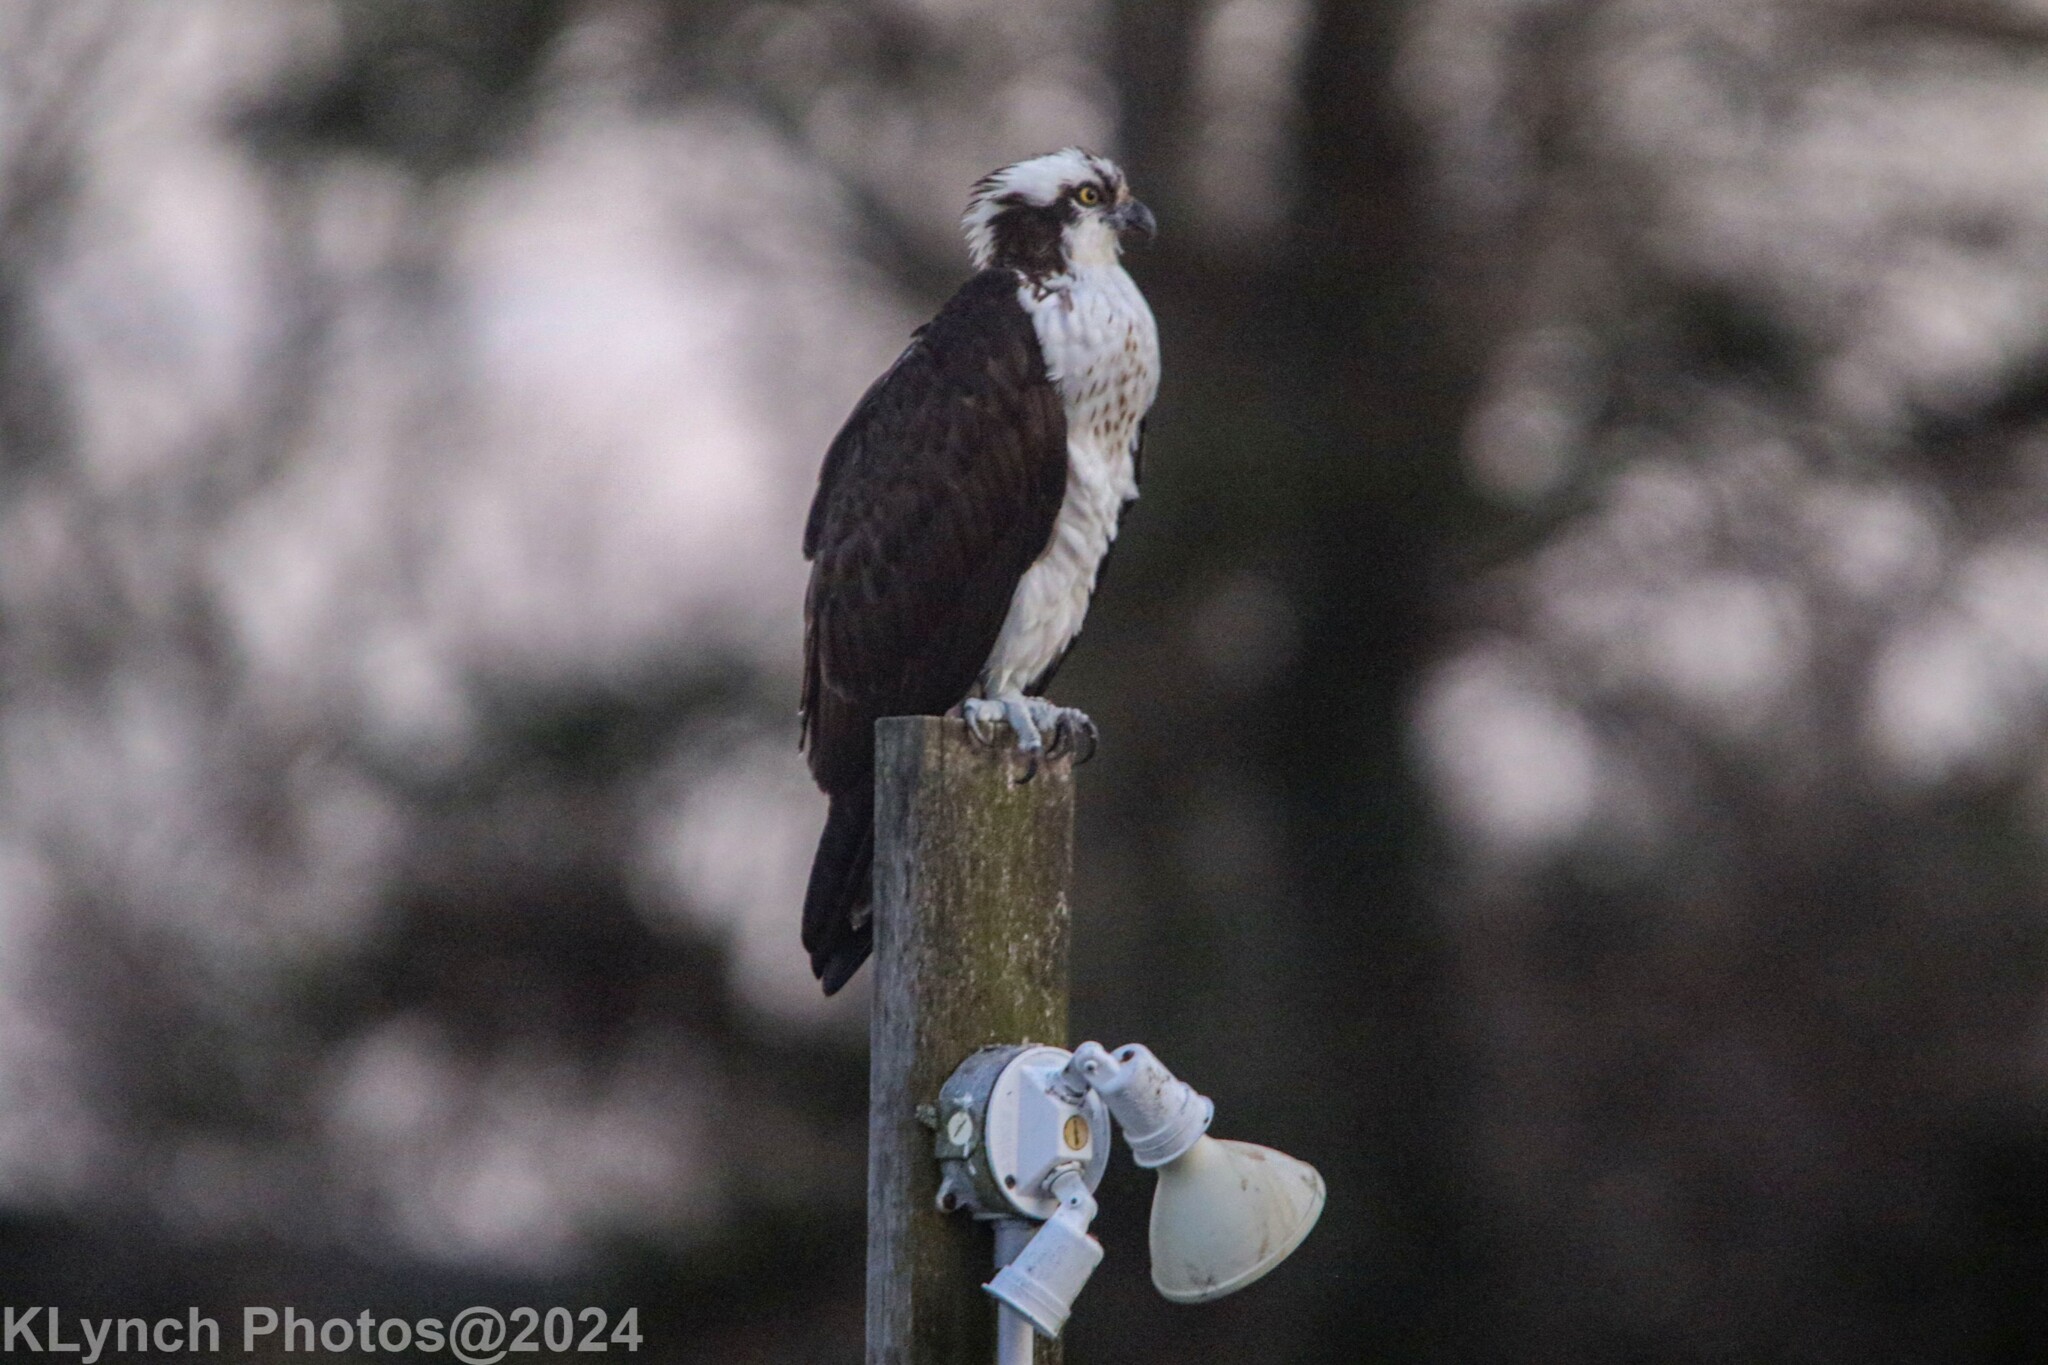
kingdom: Animalia
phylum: Chordata
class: Aves
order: Accipitriformes
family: Pandionidae
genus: Pandion
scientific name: Pandion haliaetus
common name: Osprey
